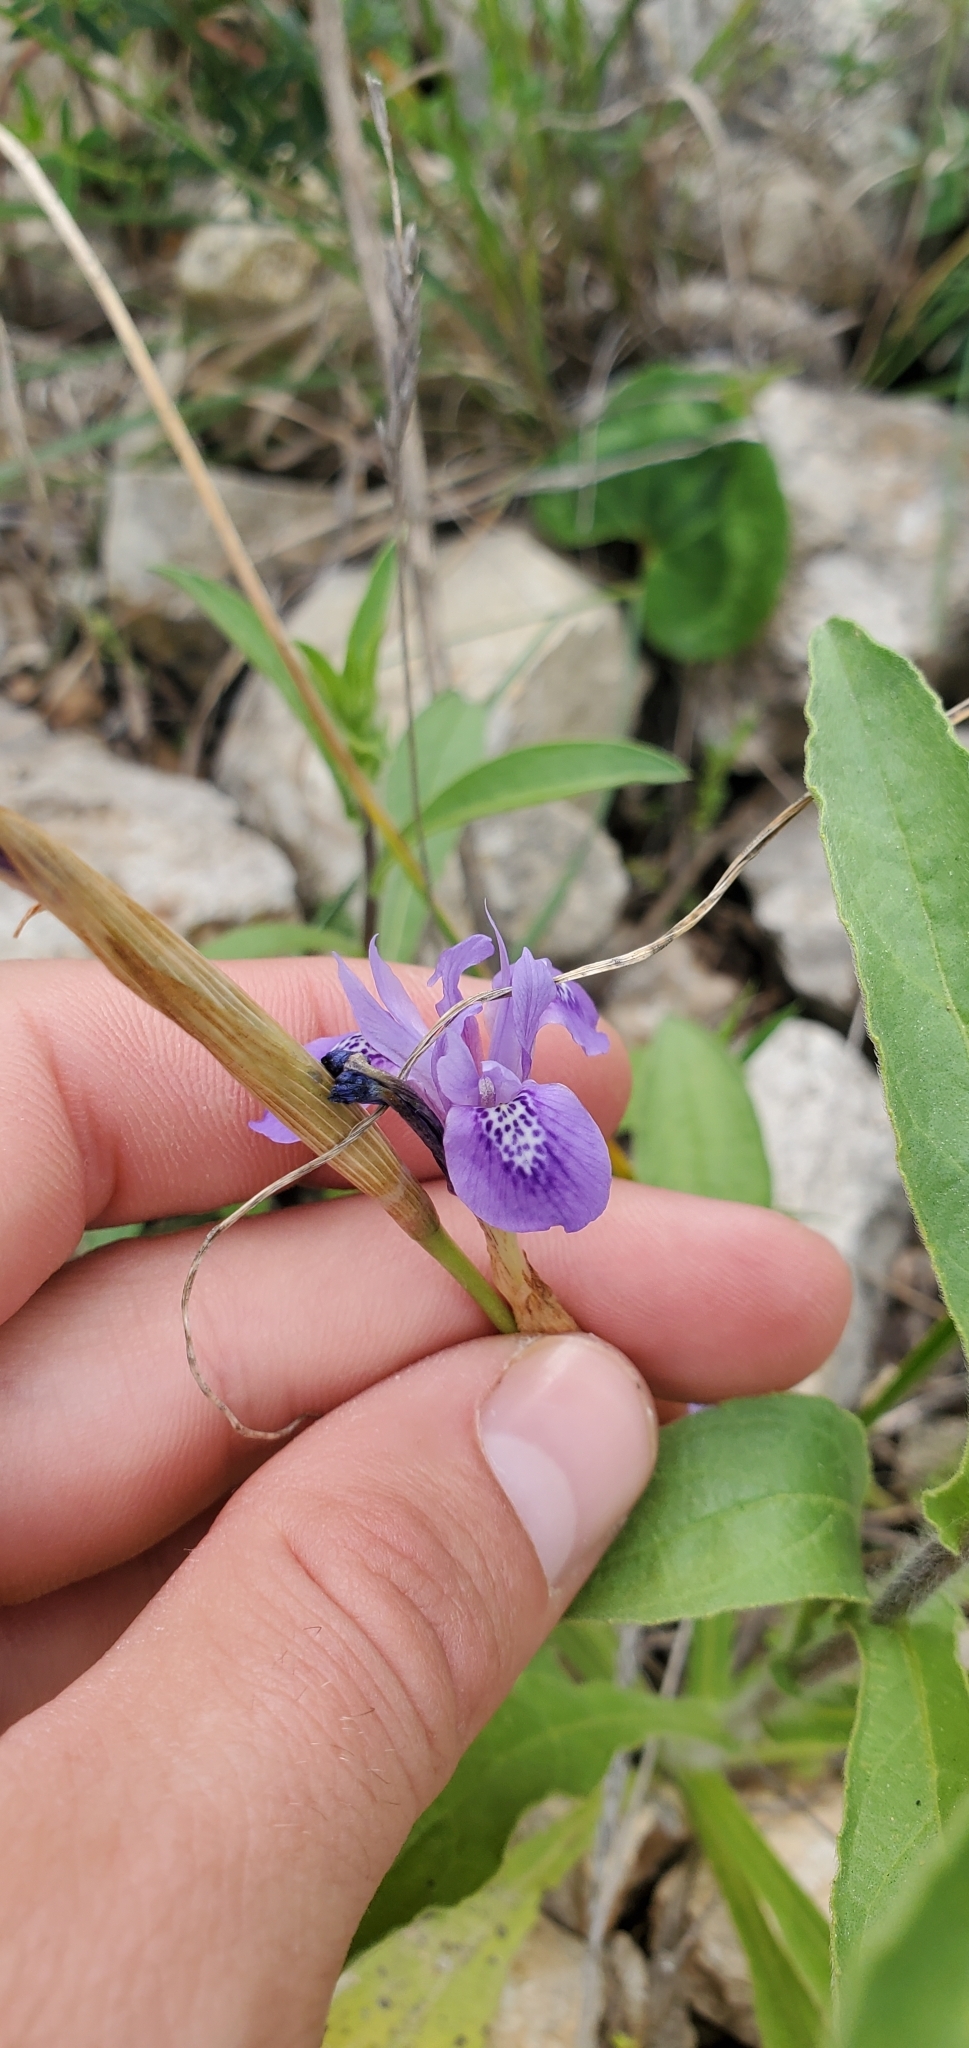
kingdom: Plantae
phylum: Tracheophyta
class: Liliopsida
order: Asparagales
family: Iridaceae
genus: Moraea
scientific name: Moraea sisyrinchium
